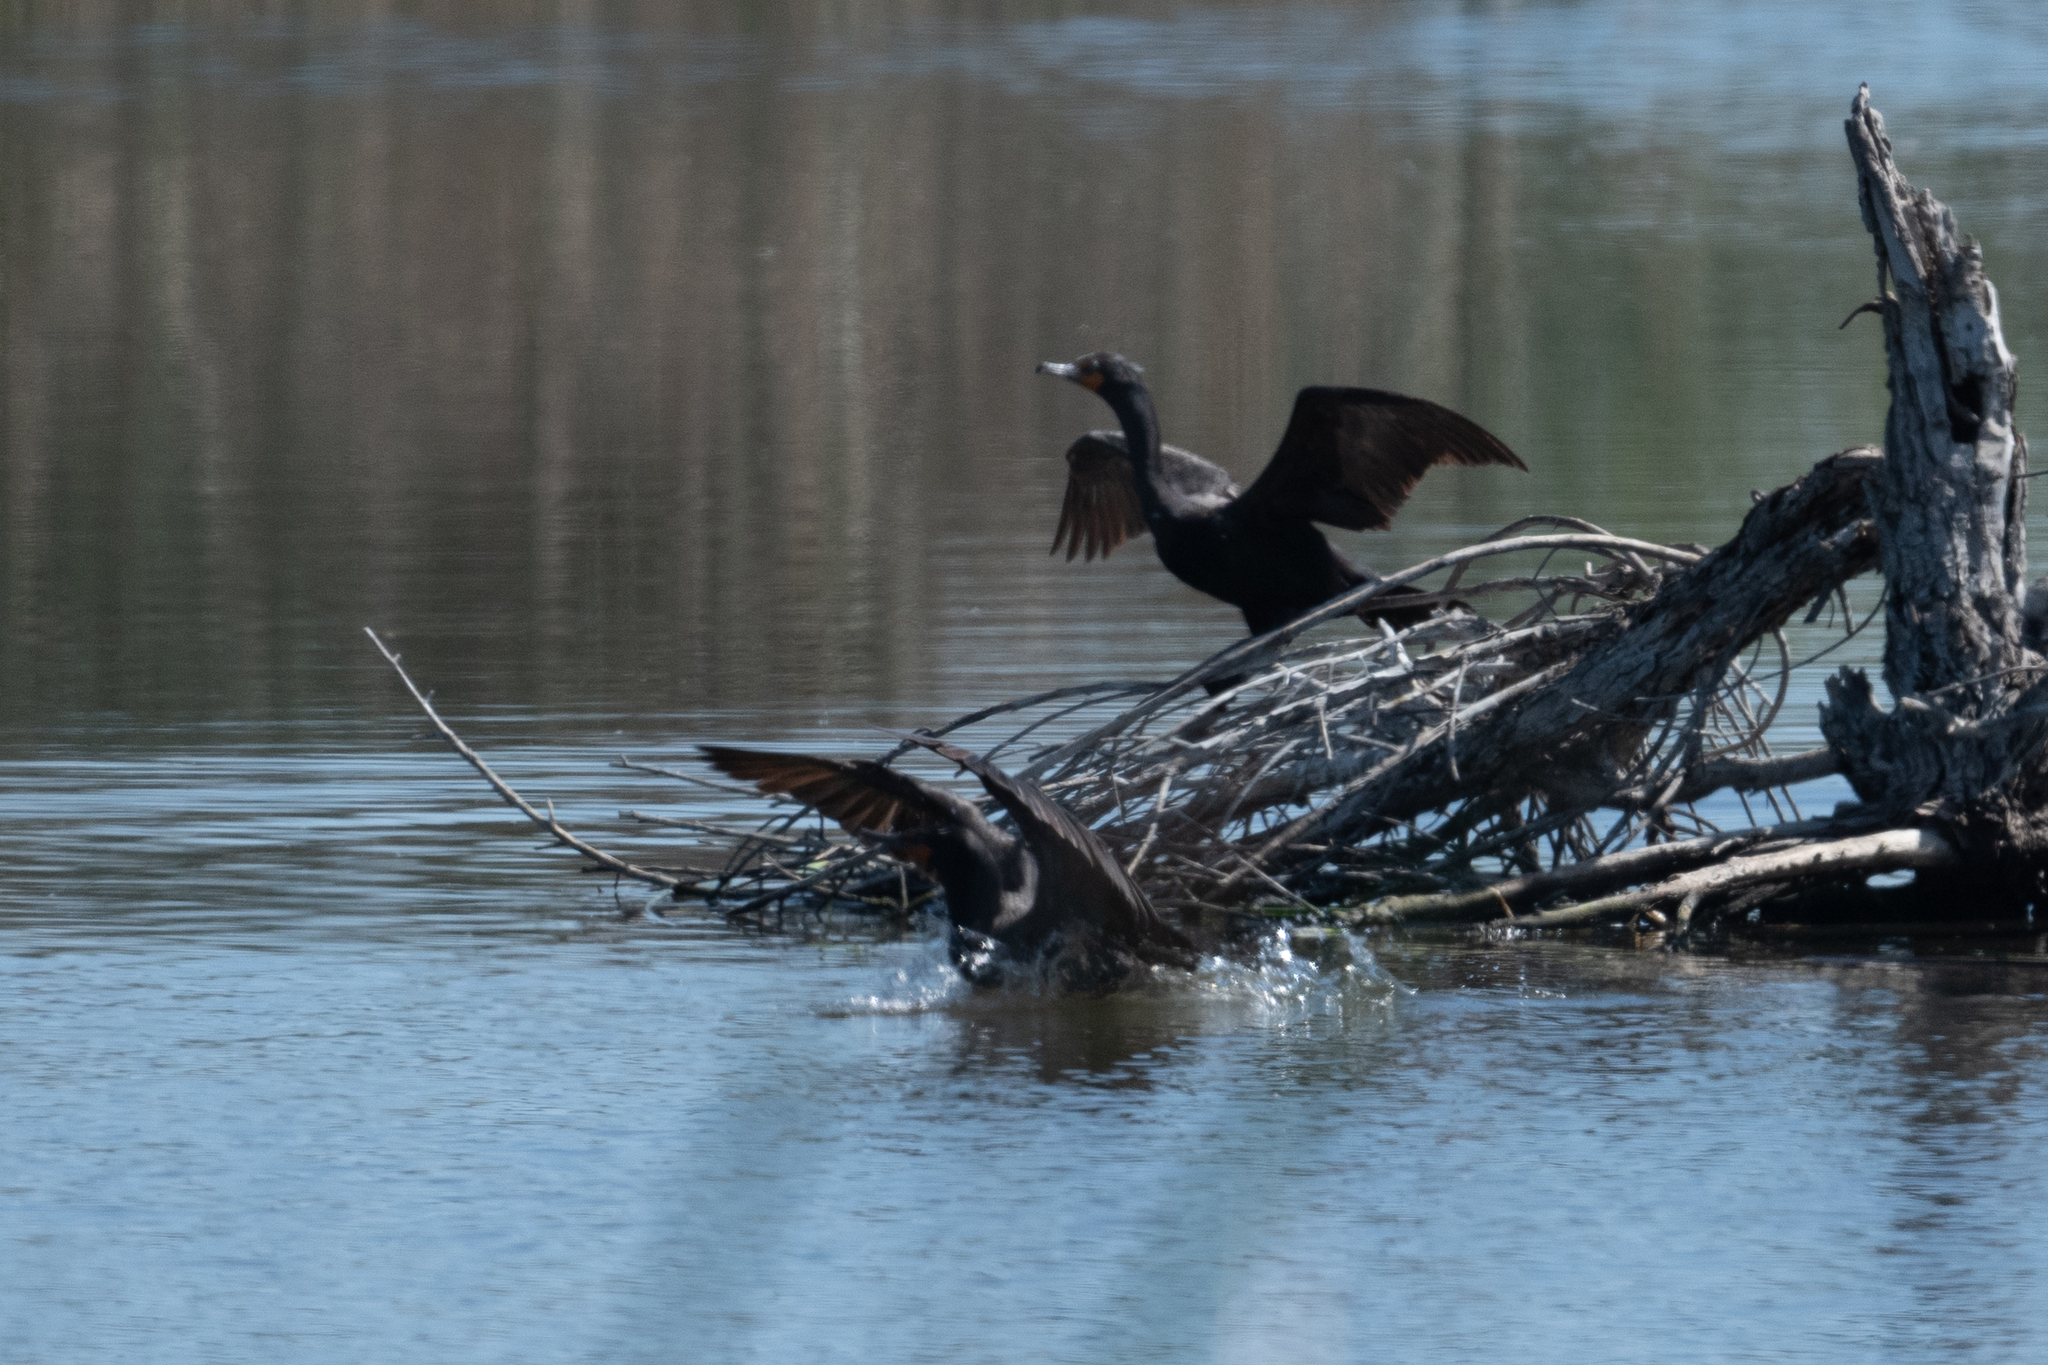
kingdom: Animalia
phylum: Chordata
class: Aves
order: Suliformes
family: Phalacrocoracidae
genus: Phalacrocorax
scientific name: Phalacrocorax auritus
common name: Double-crested cormorant
